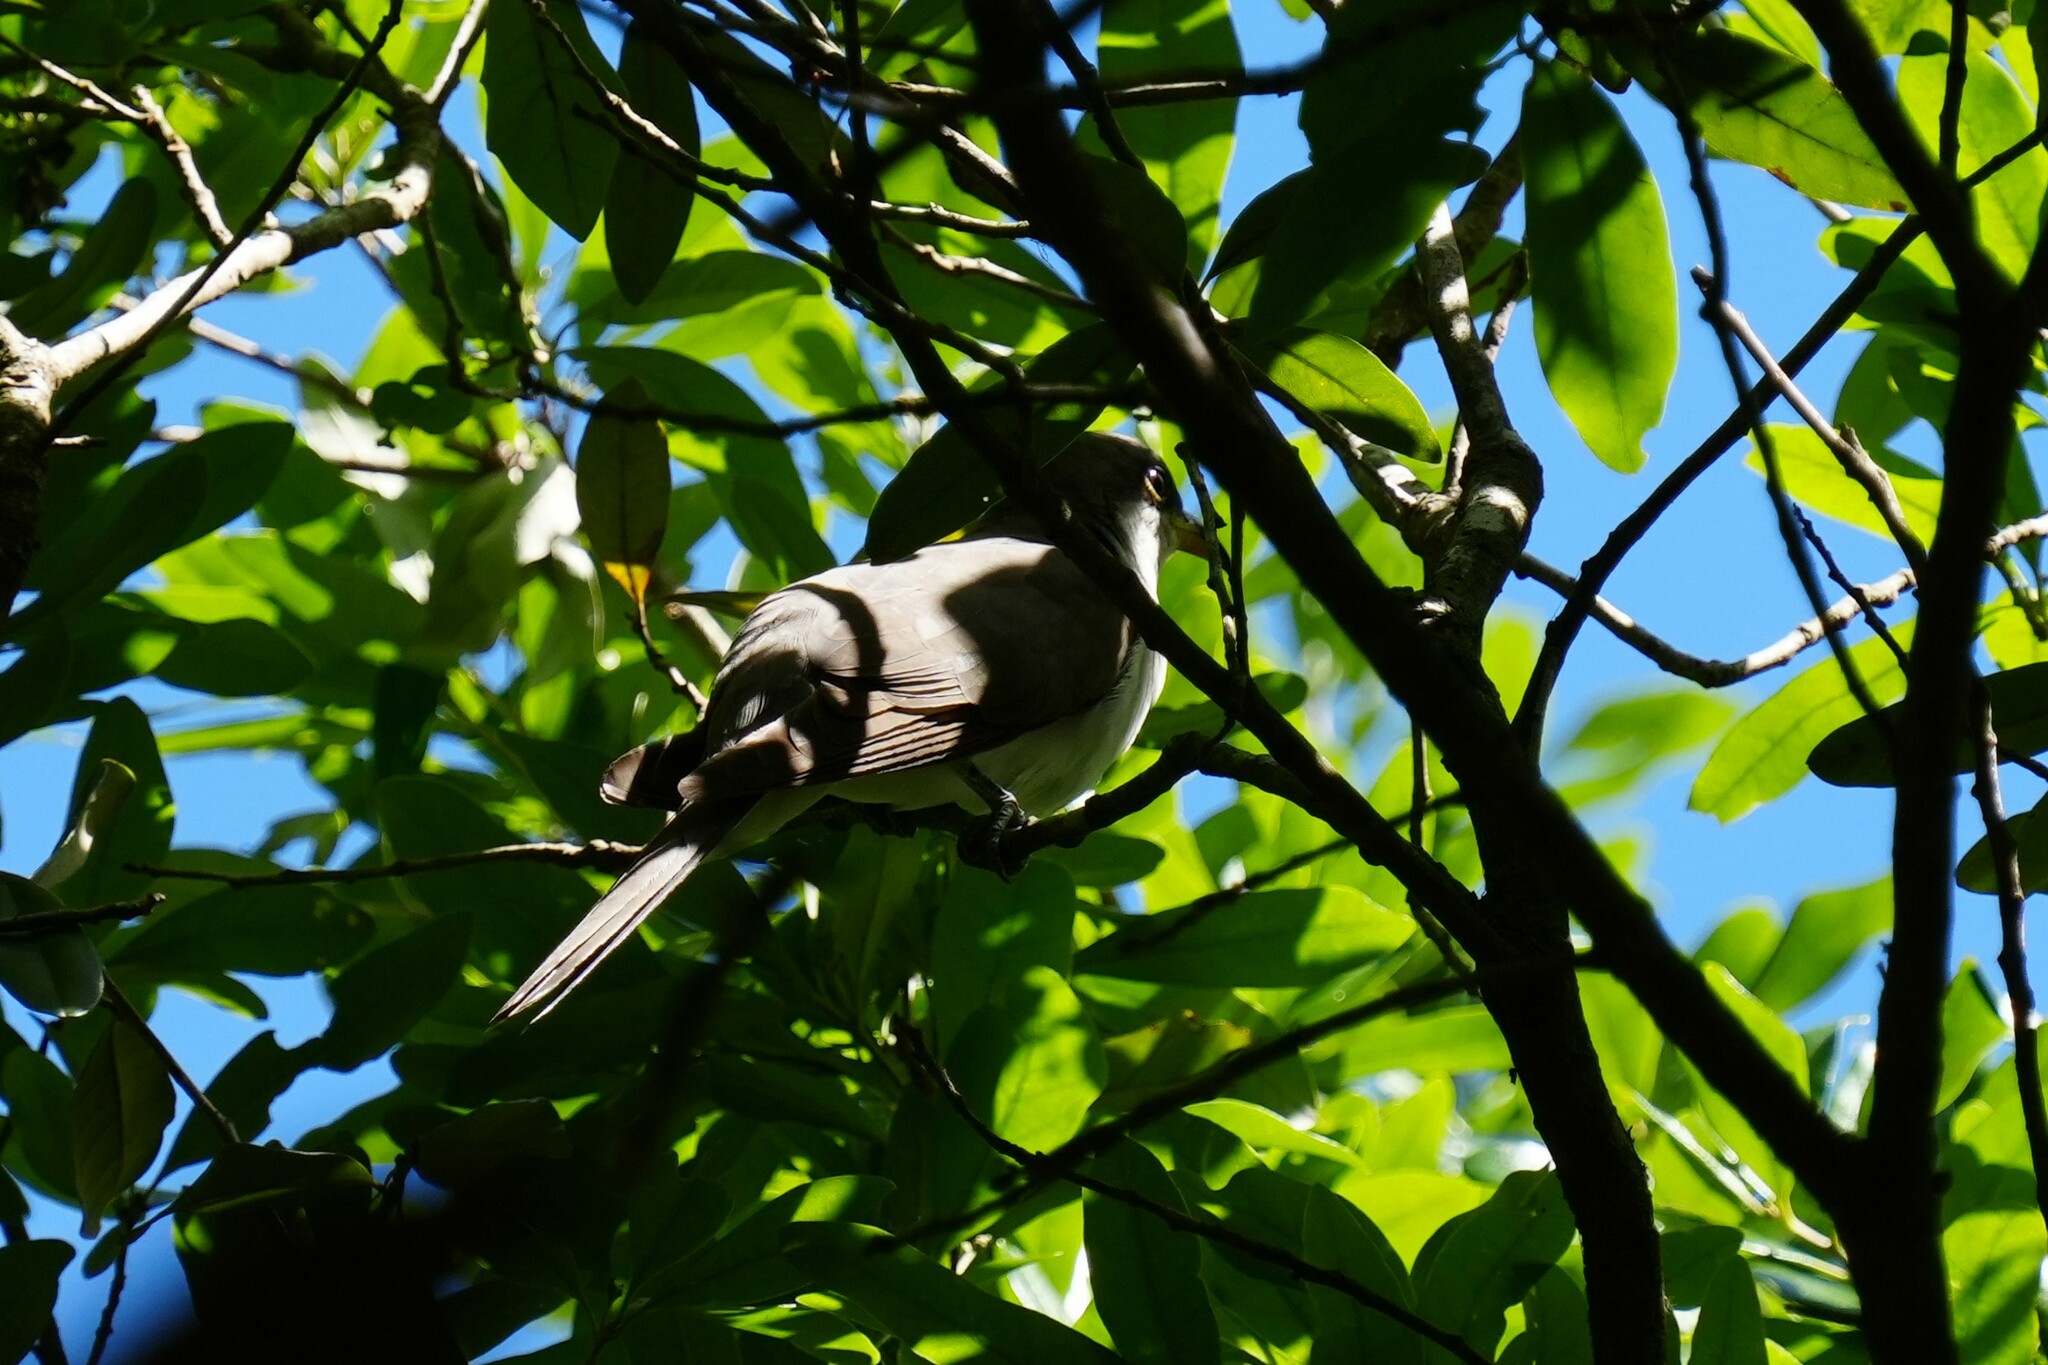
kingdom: Animalia
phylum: Chordata
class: Aves
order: Cuculiformes
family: Cuculidae
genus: Coccyzus
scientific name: Coccyzus americanus
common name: Yellow-billed cuckoo
